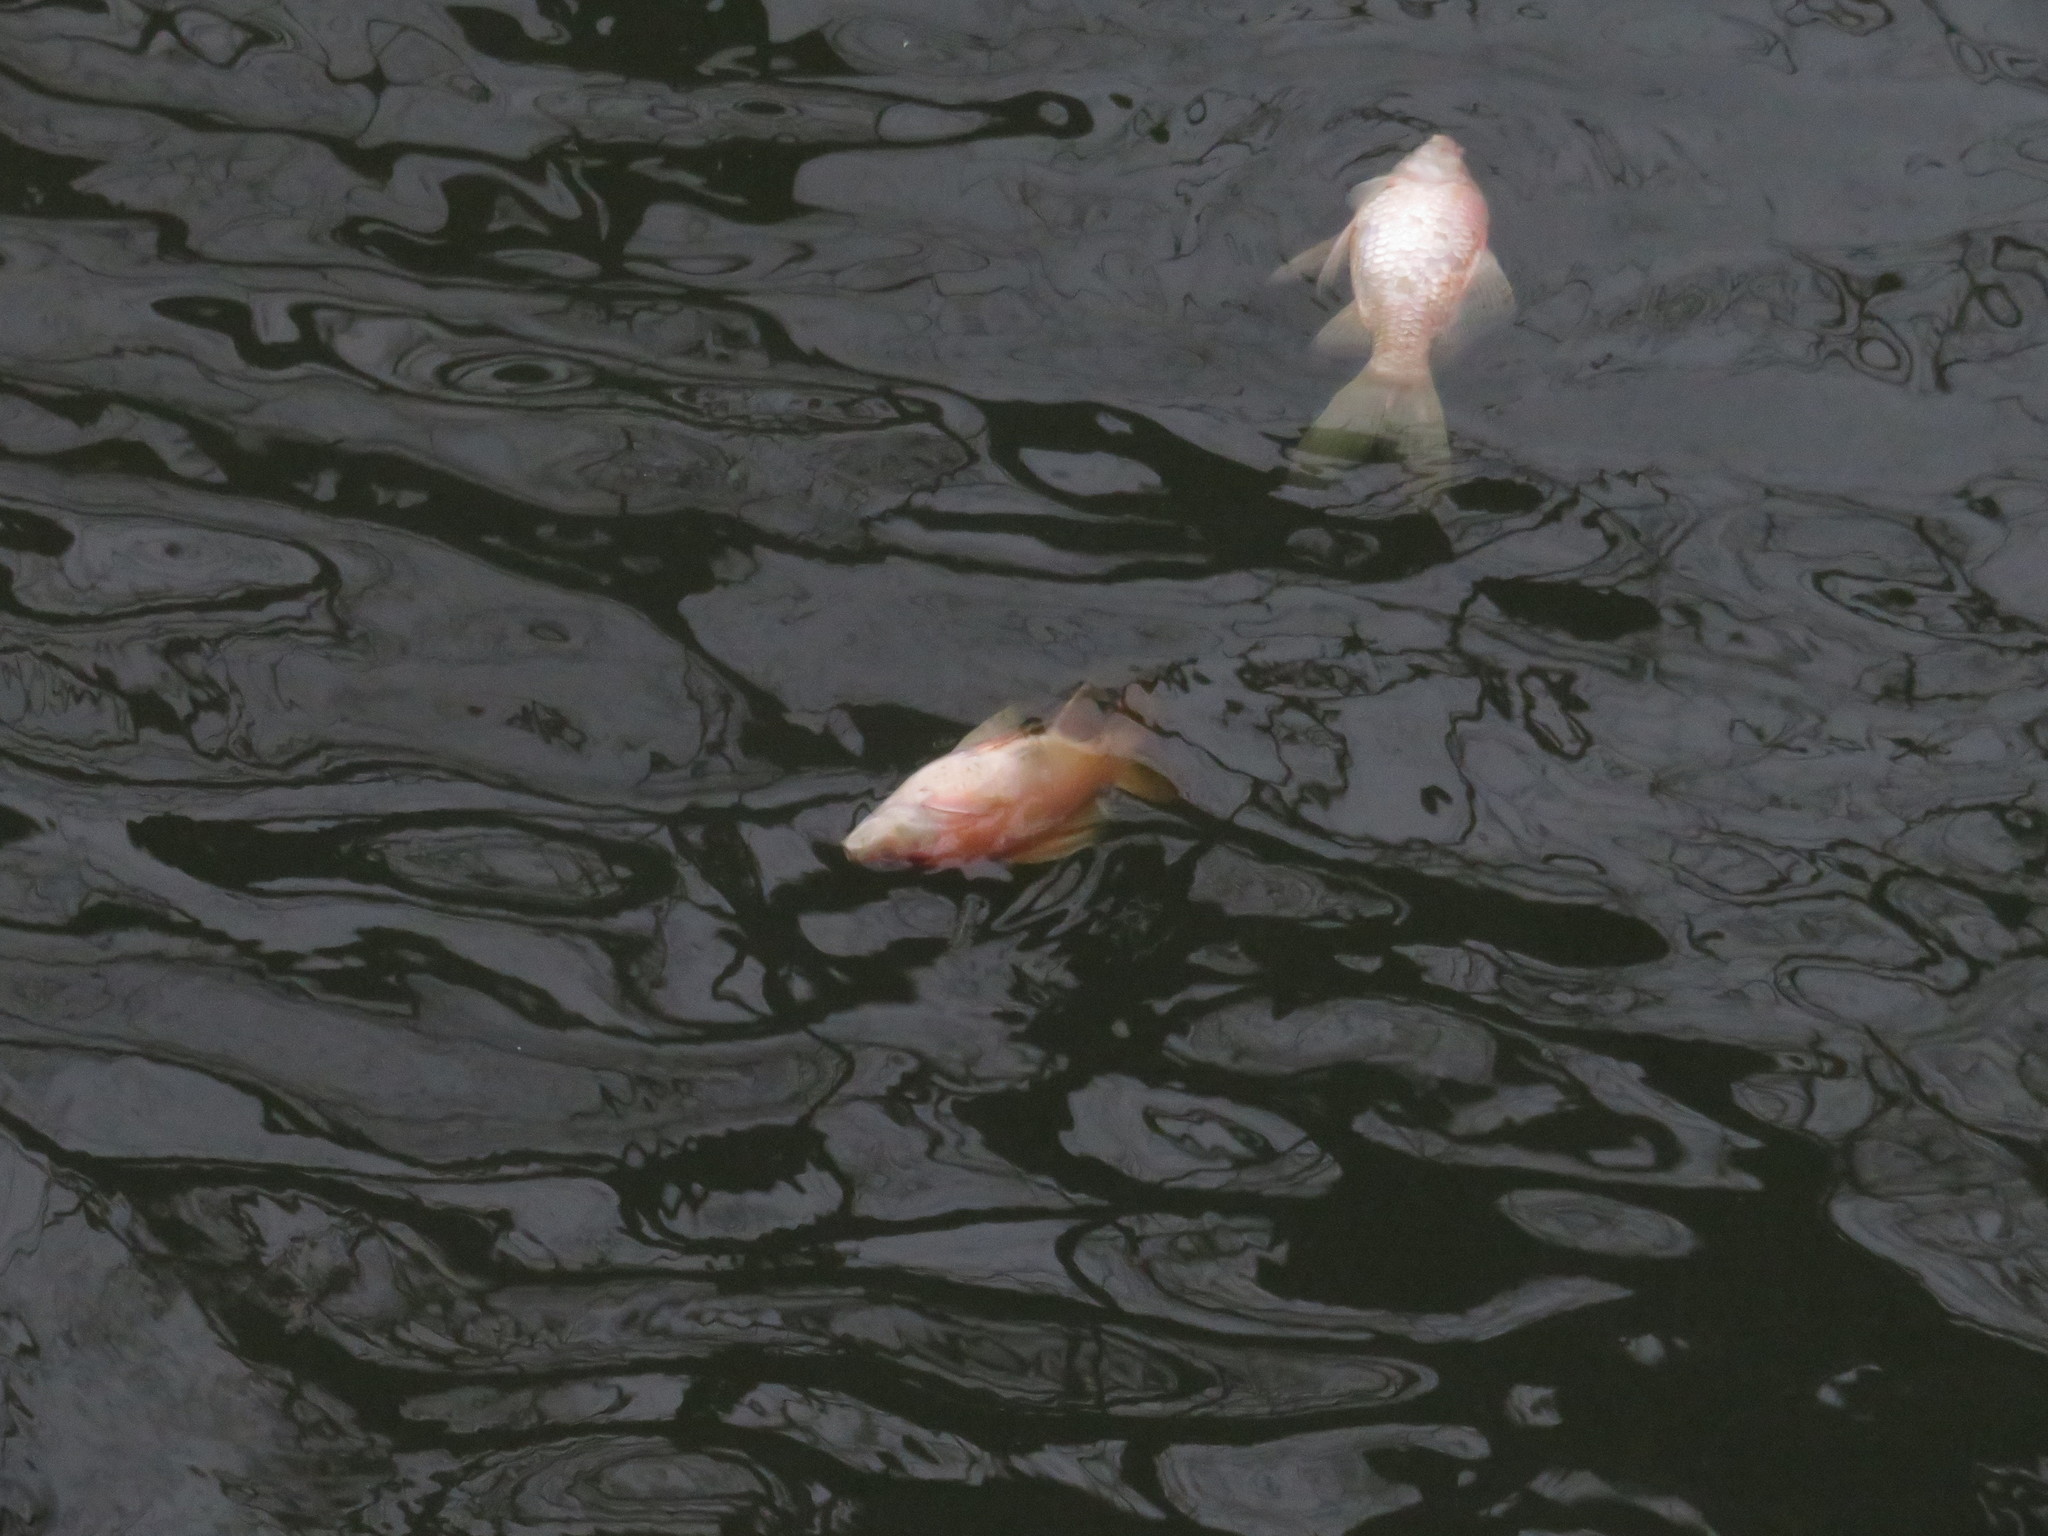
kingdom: Animalia
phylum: Chordata
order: Cypriniformes
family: Cyprinidae
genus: Carassius
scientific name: Carassius auratus
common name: Goldfish
